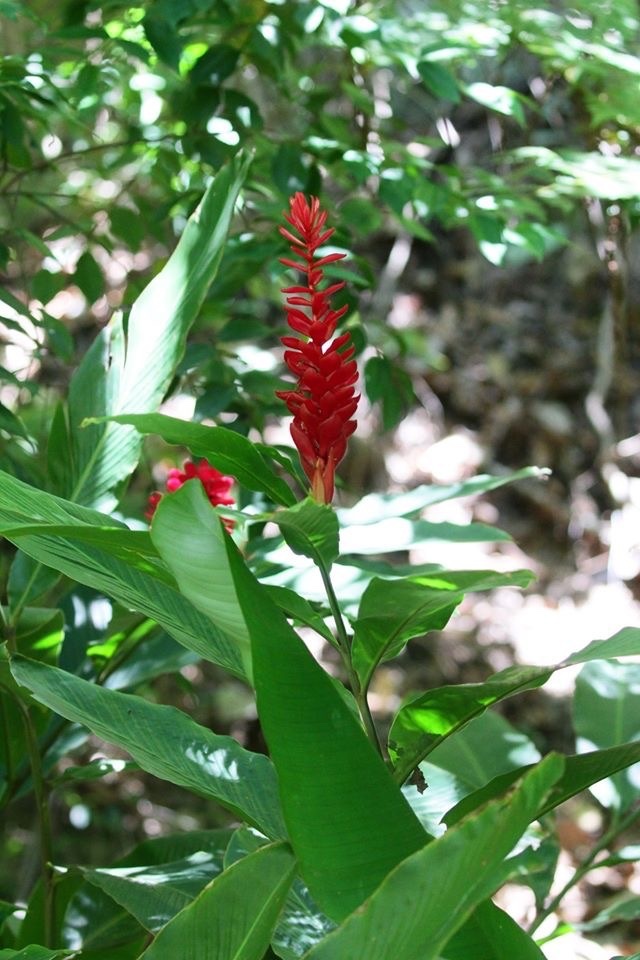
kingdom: Plantae
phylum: Tracheophyta
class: Liliopsida
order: Zingiberales
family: Zingiberaceae
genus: Alpinia
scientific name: Alpinia purpurata
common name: Red ginger
